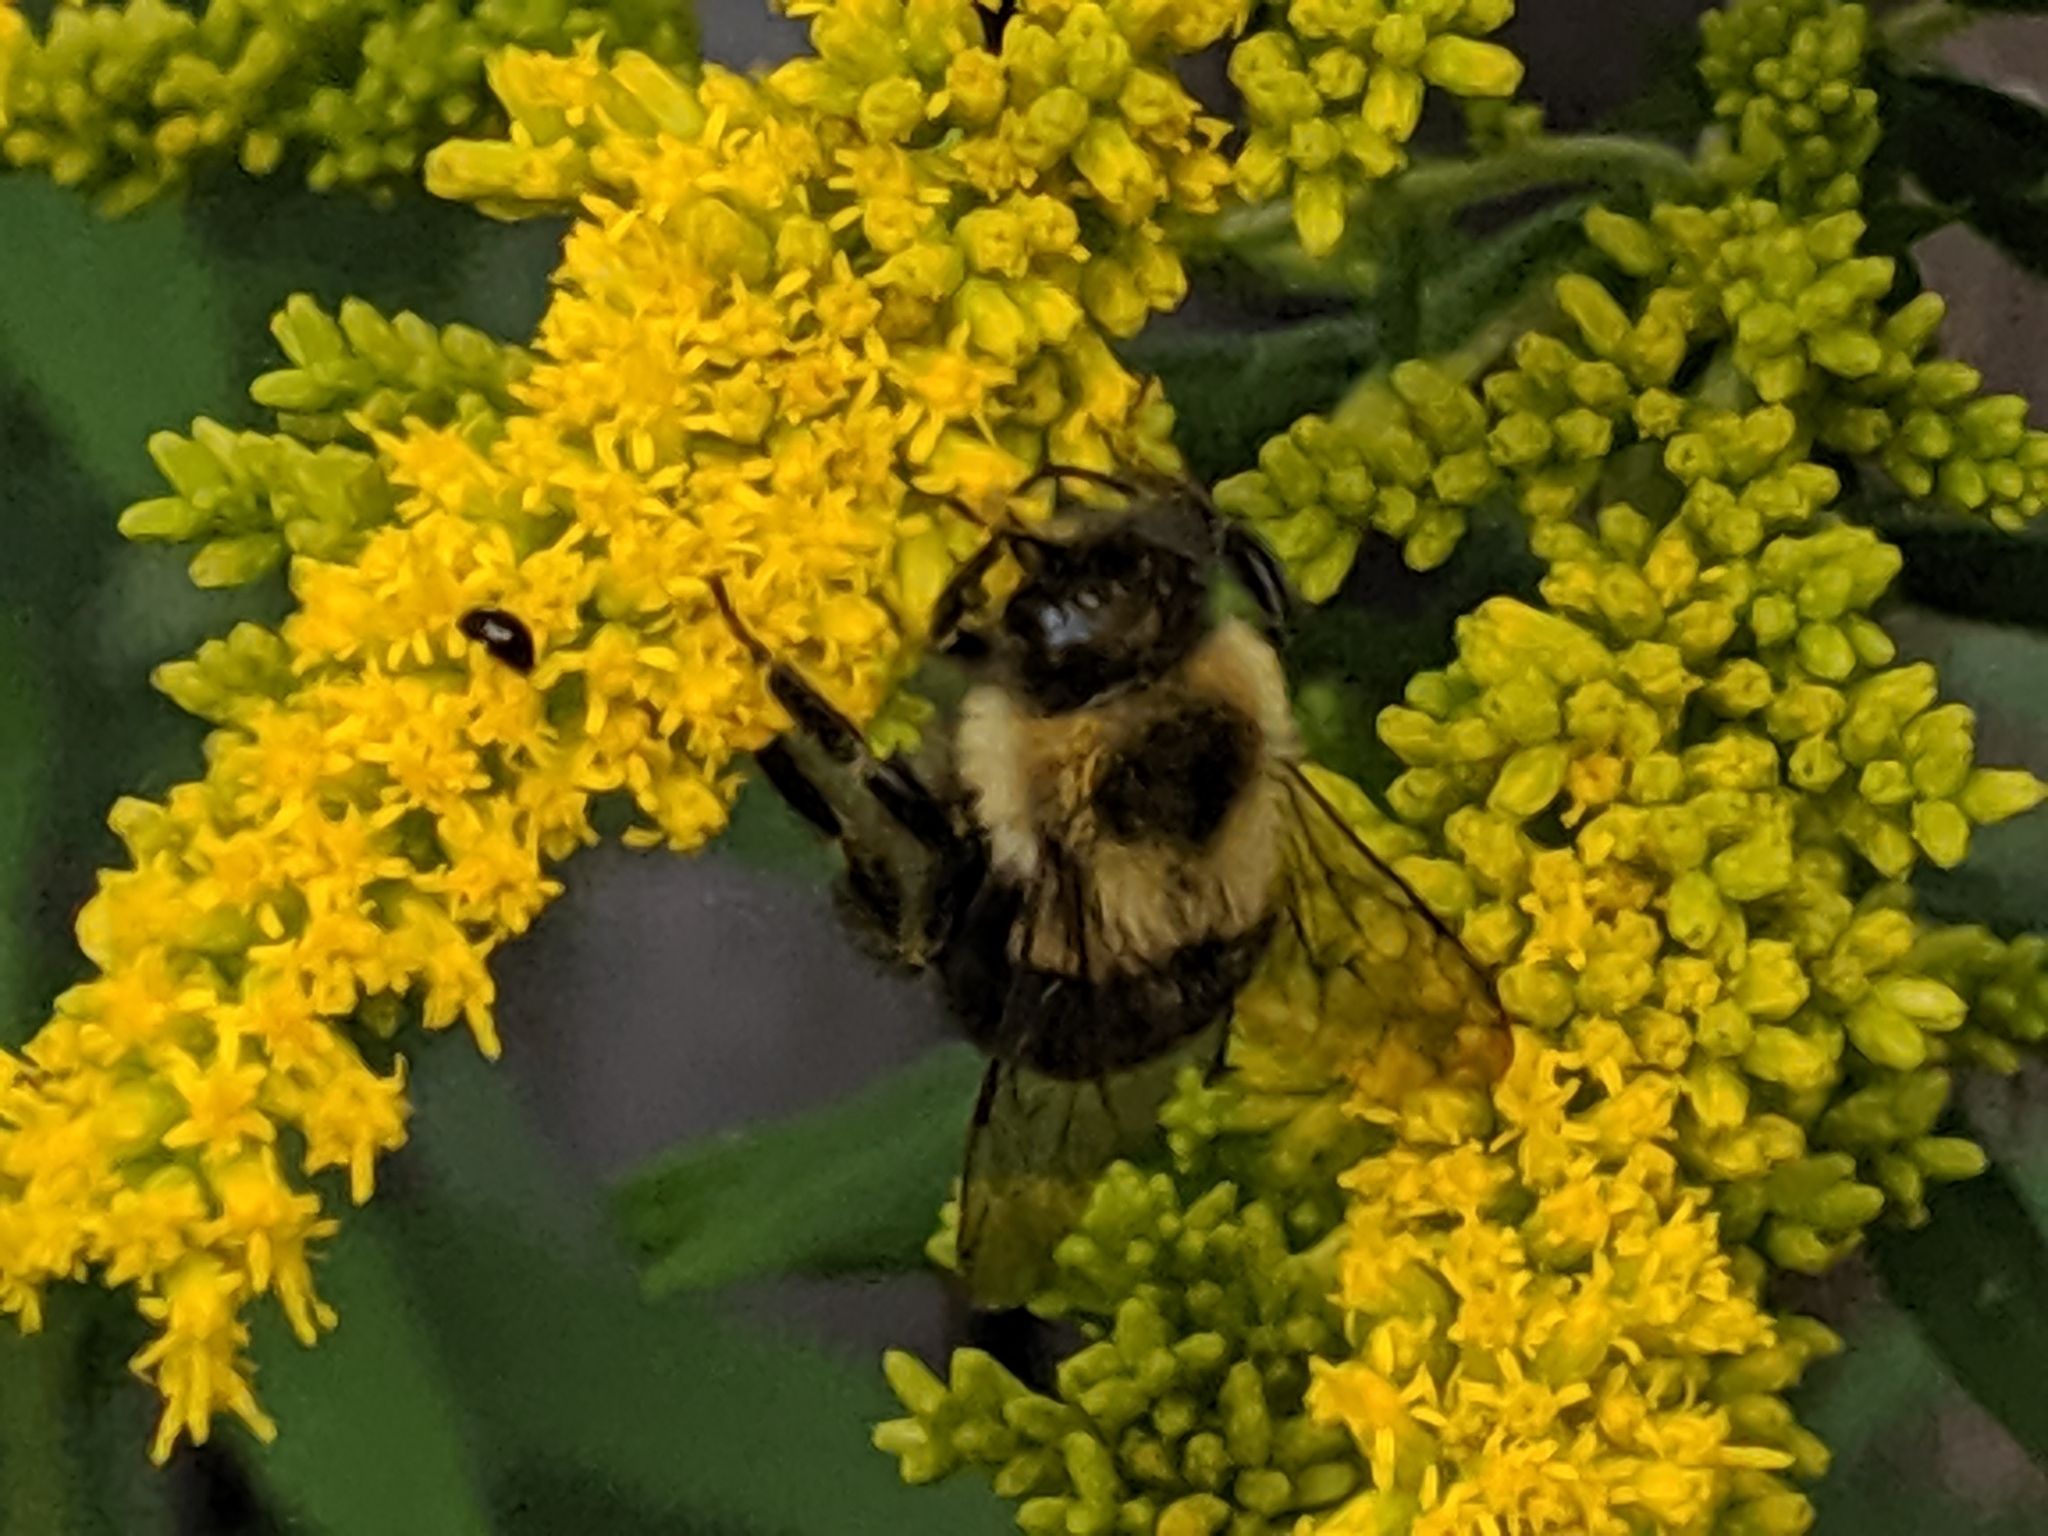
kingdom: Animalia
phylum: Arthropoda
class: Insecta
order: Hymenoptera
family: Apidae
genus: Bombus
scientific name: Bombus impatiens
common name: Common eastern bumble bee
